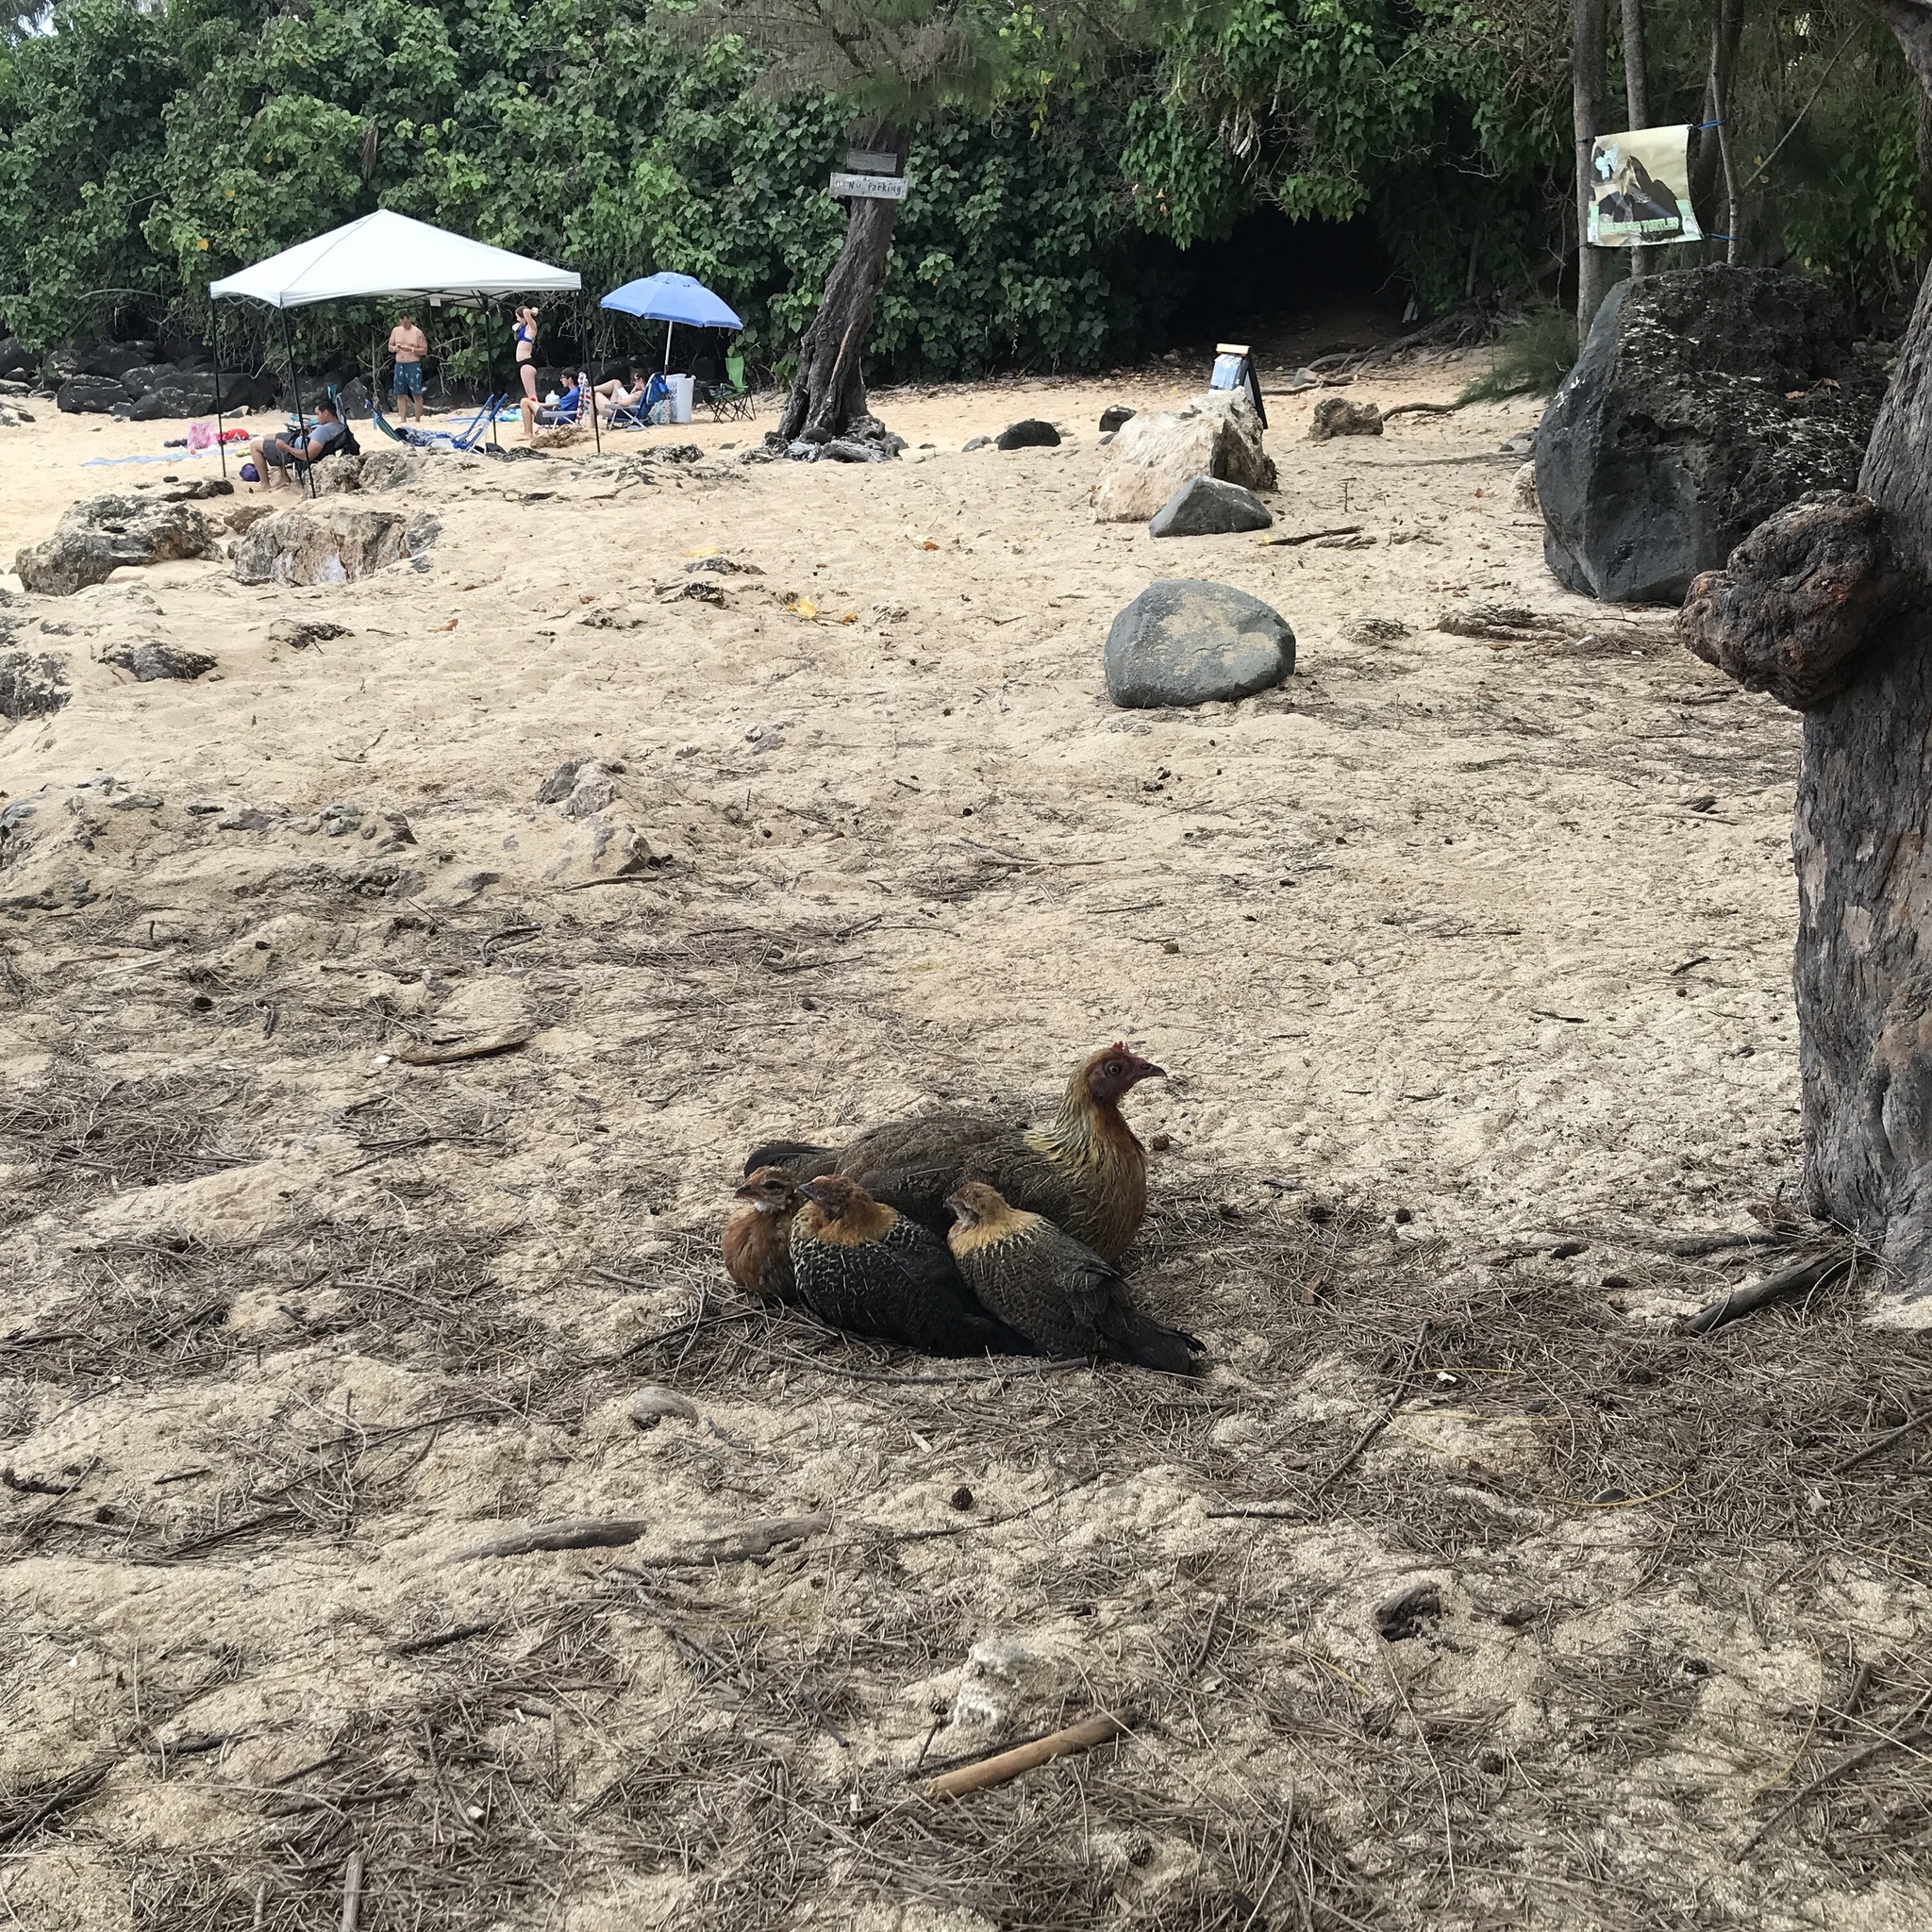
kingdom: Animalia
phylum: Chordata
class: Aves
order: Galliformes
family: Phasianidae
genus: Gallus
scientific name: Gallus gallus
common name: Red junglefowl
